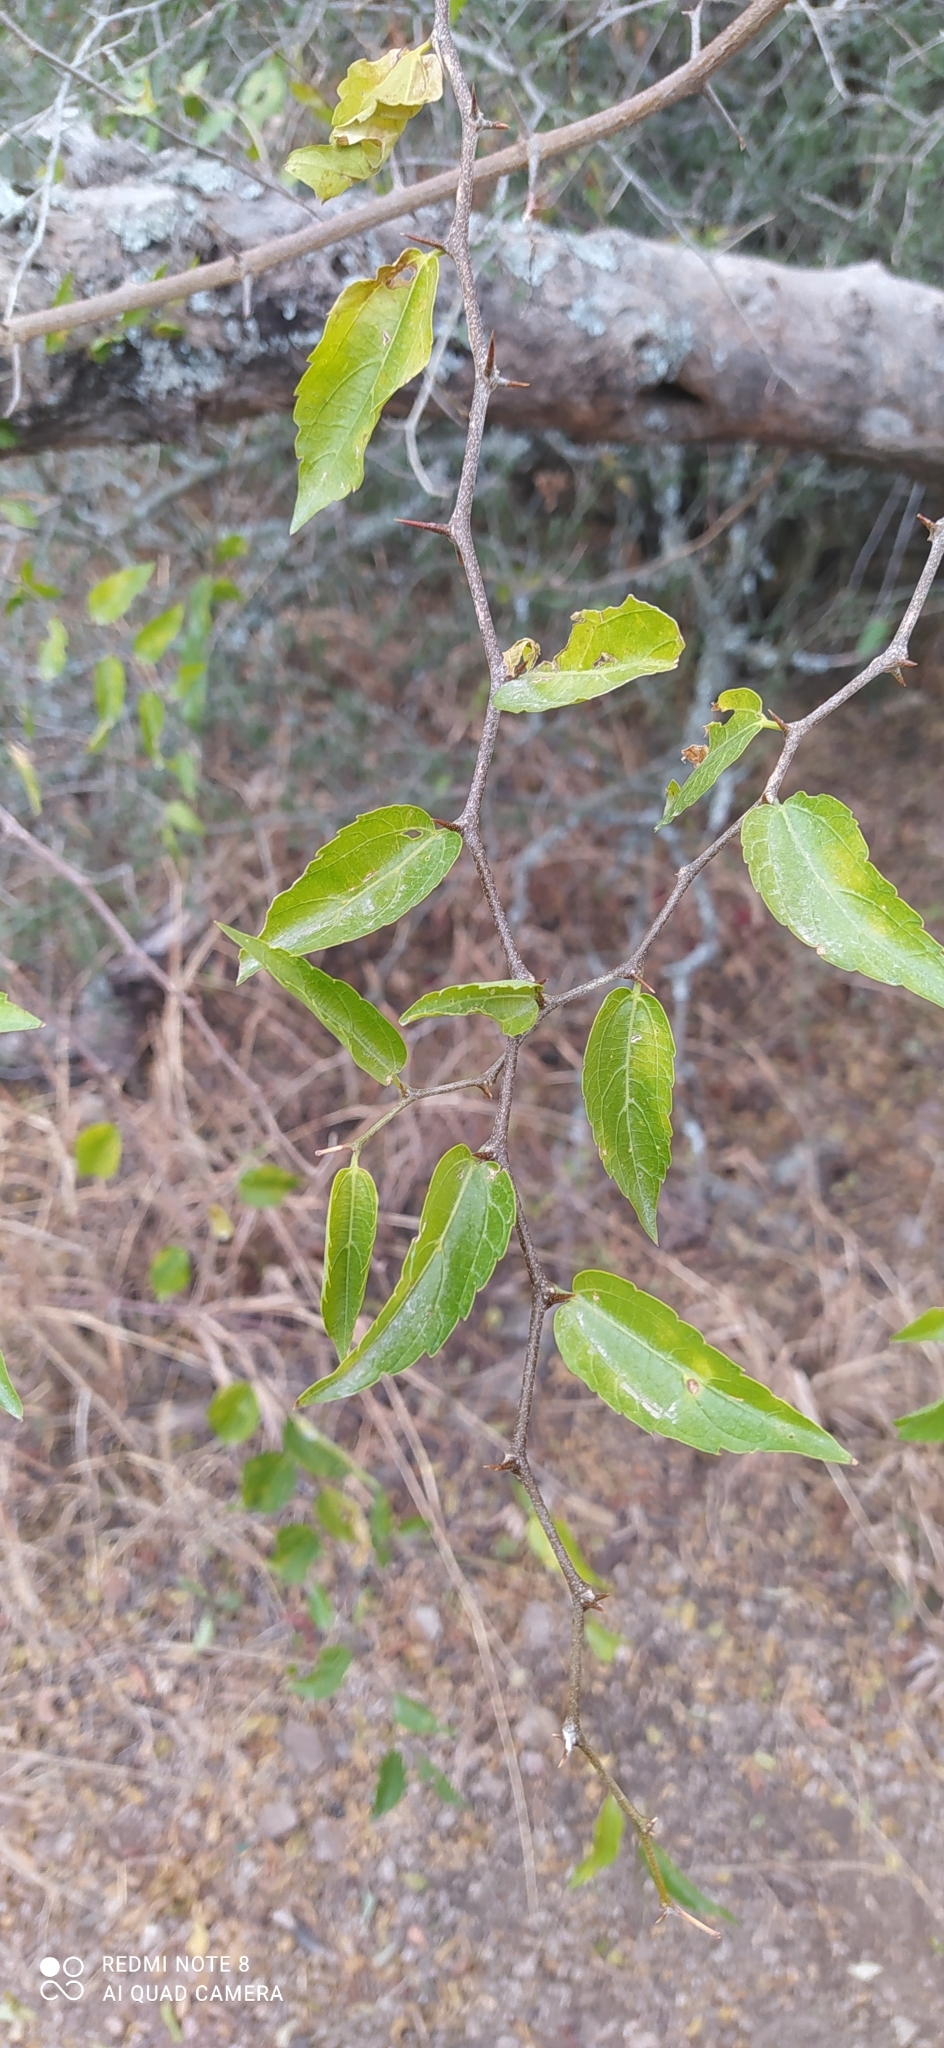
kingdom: Plantae
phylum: Tracheophyta
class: Magnoliopsida
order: Rosales
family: Cannabaceae
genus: Celtis
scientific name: Celtis tala
